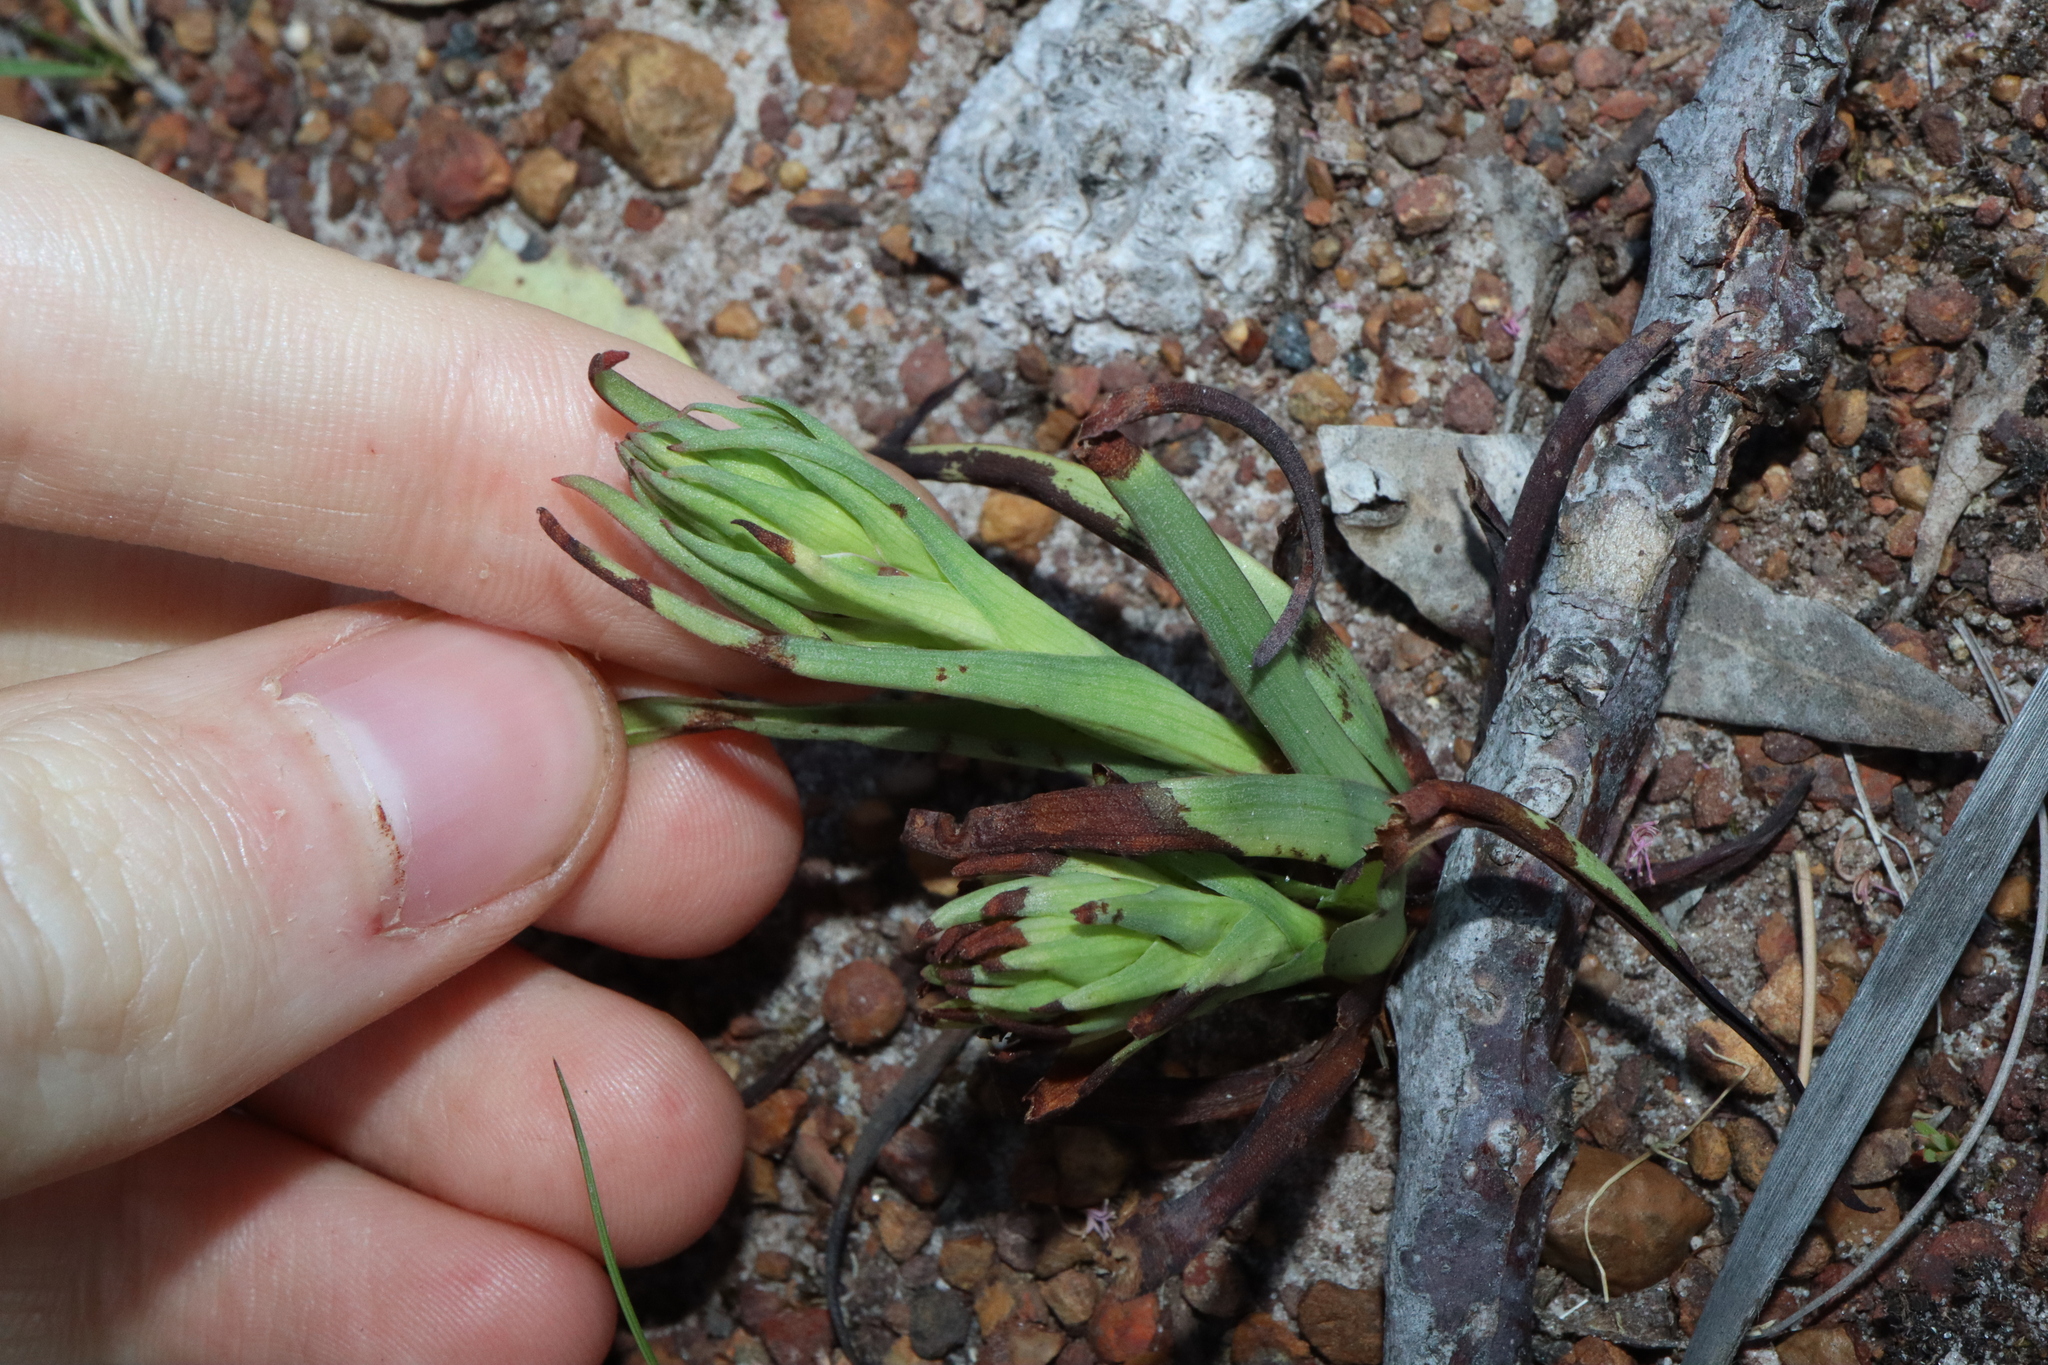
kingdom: Plantae
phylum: Tracheophyta
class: Liliopsida
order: Asparagales
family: Orchidaceae
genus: Disa
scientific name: Disa bracteata
